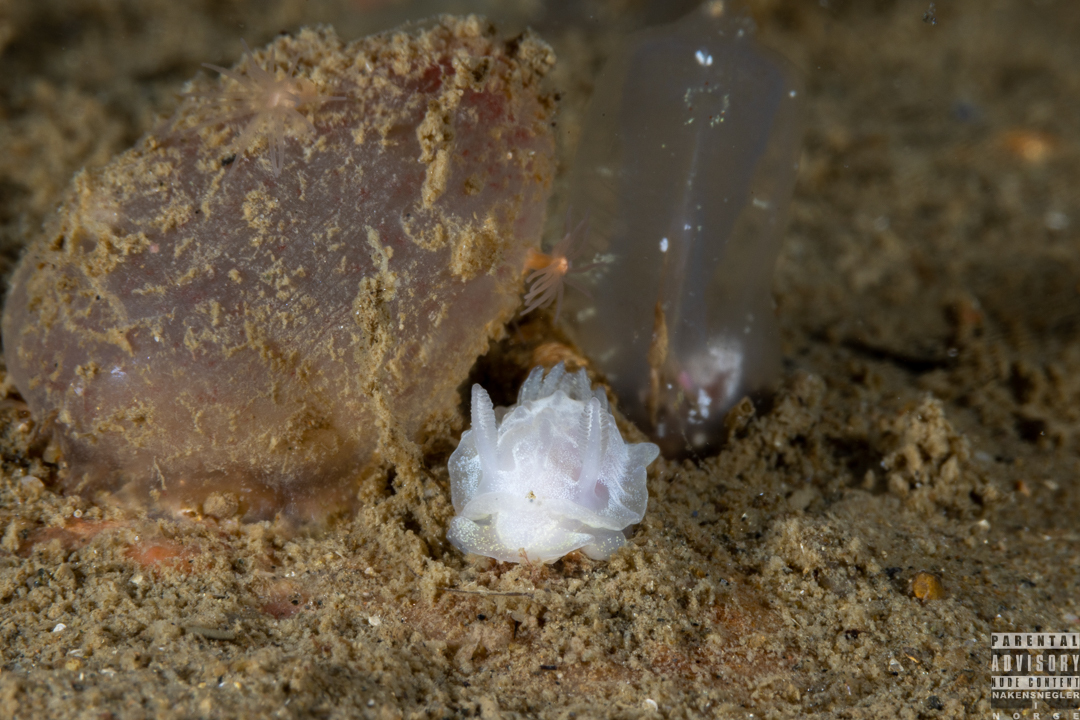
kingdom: Animalia
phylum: Mollusca
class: Gastropoda
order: Nudibranchia
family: Goniodorididae
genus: Okenia
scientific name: Okenia
